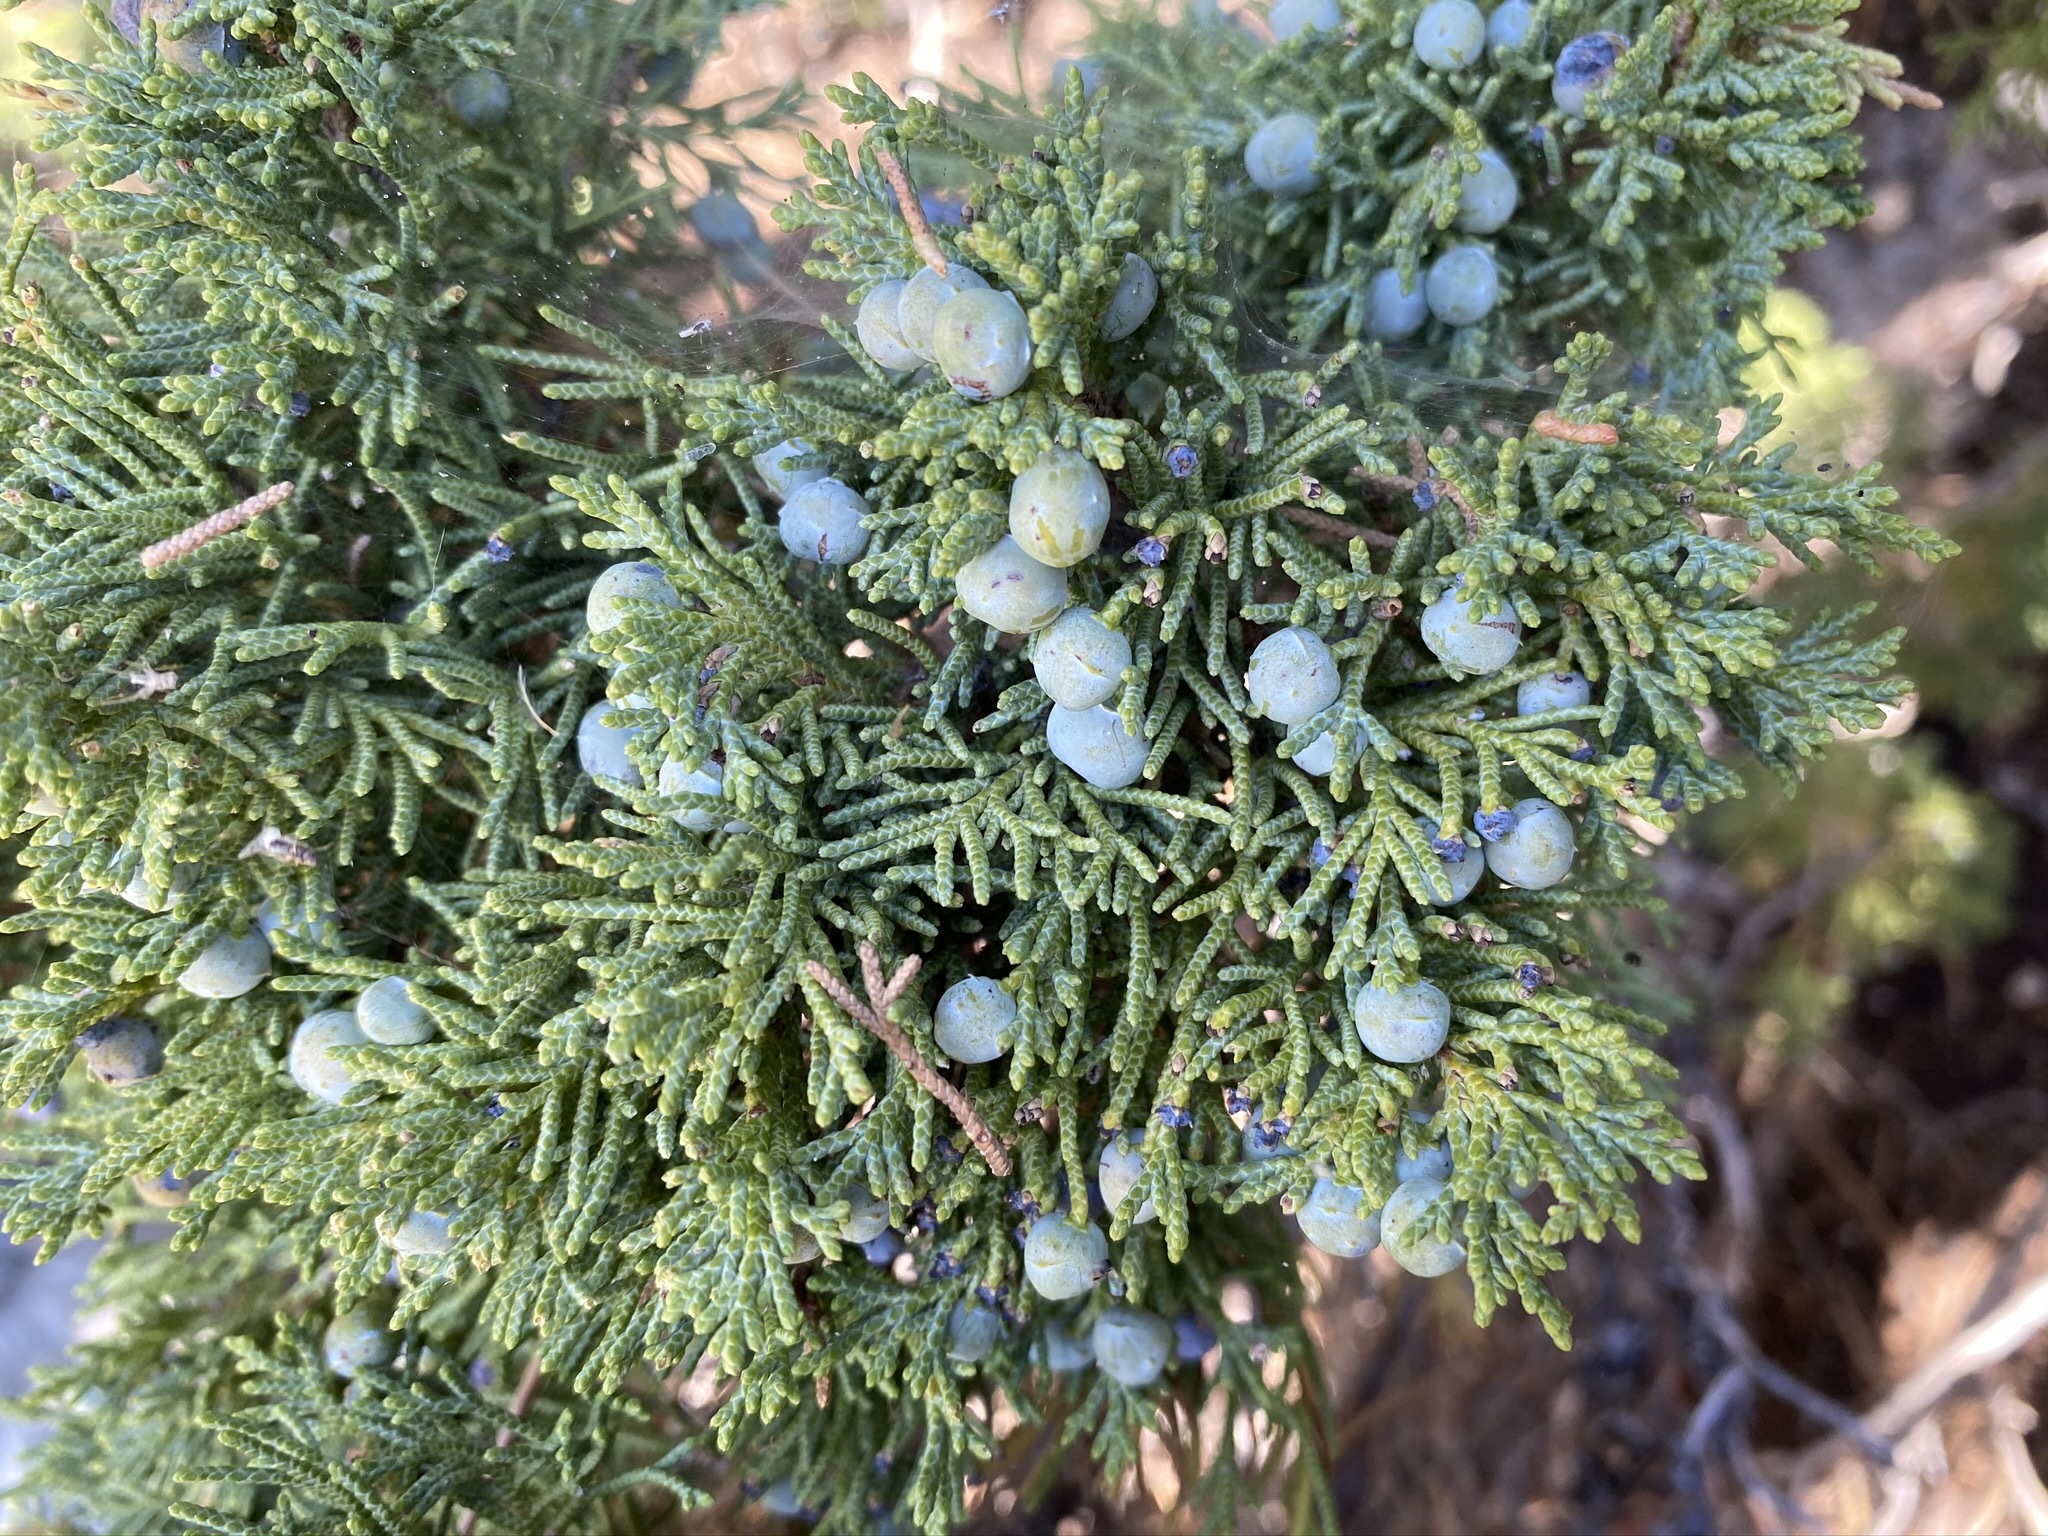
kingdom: Plantae
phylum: Tracheophyta
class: Pinopsida
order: Pinales
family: Cupressaceae
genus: Juniperus
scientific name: Juniperus osteosperma
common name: Utah juniper
